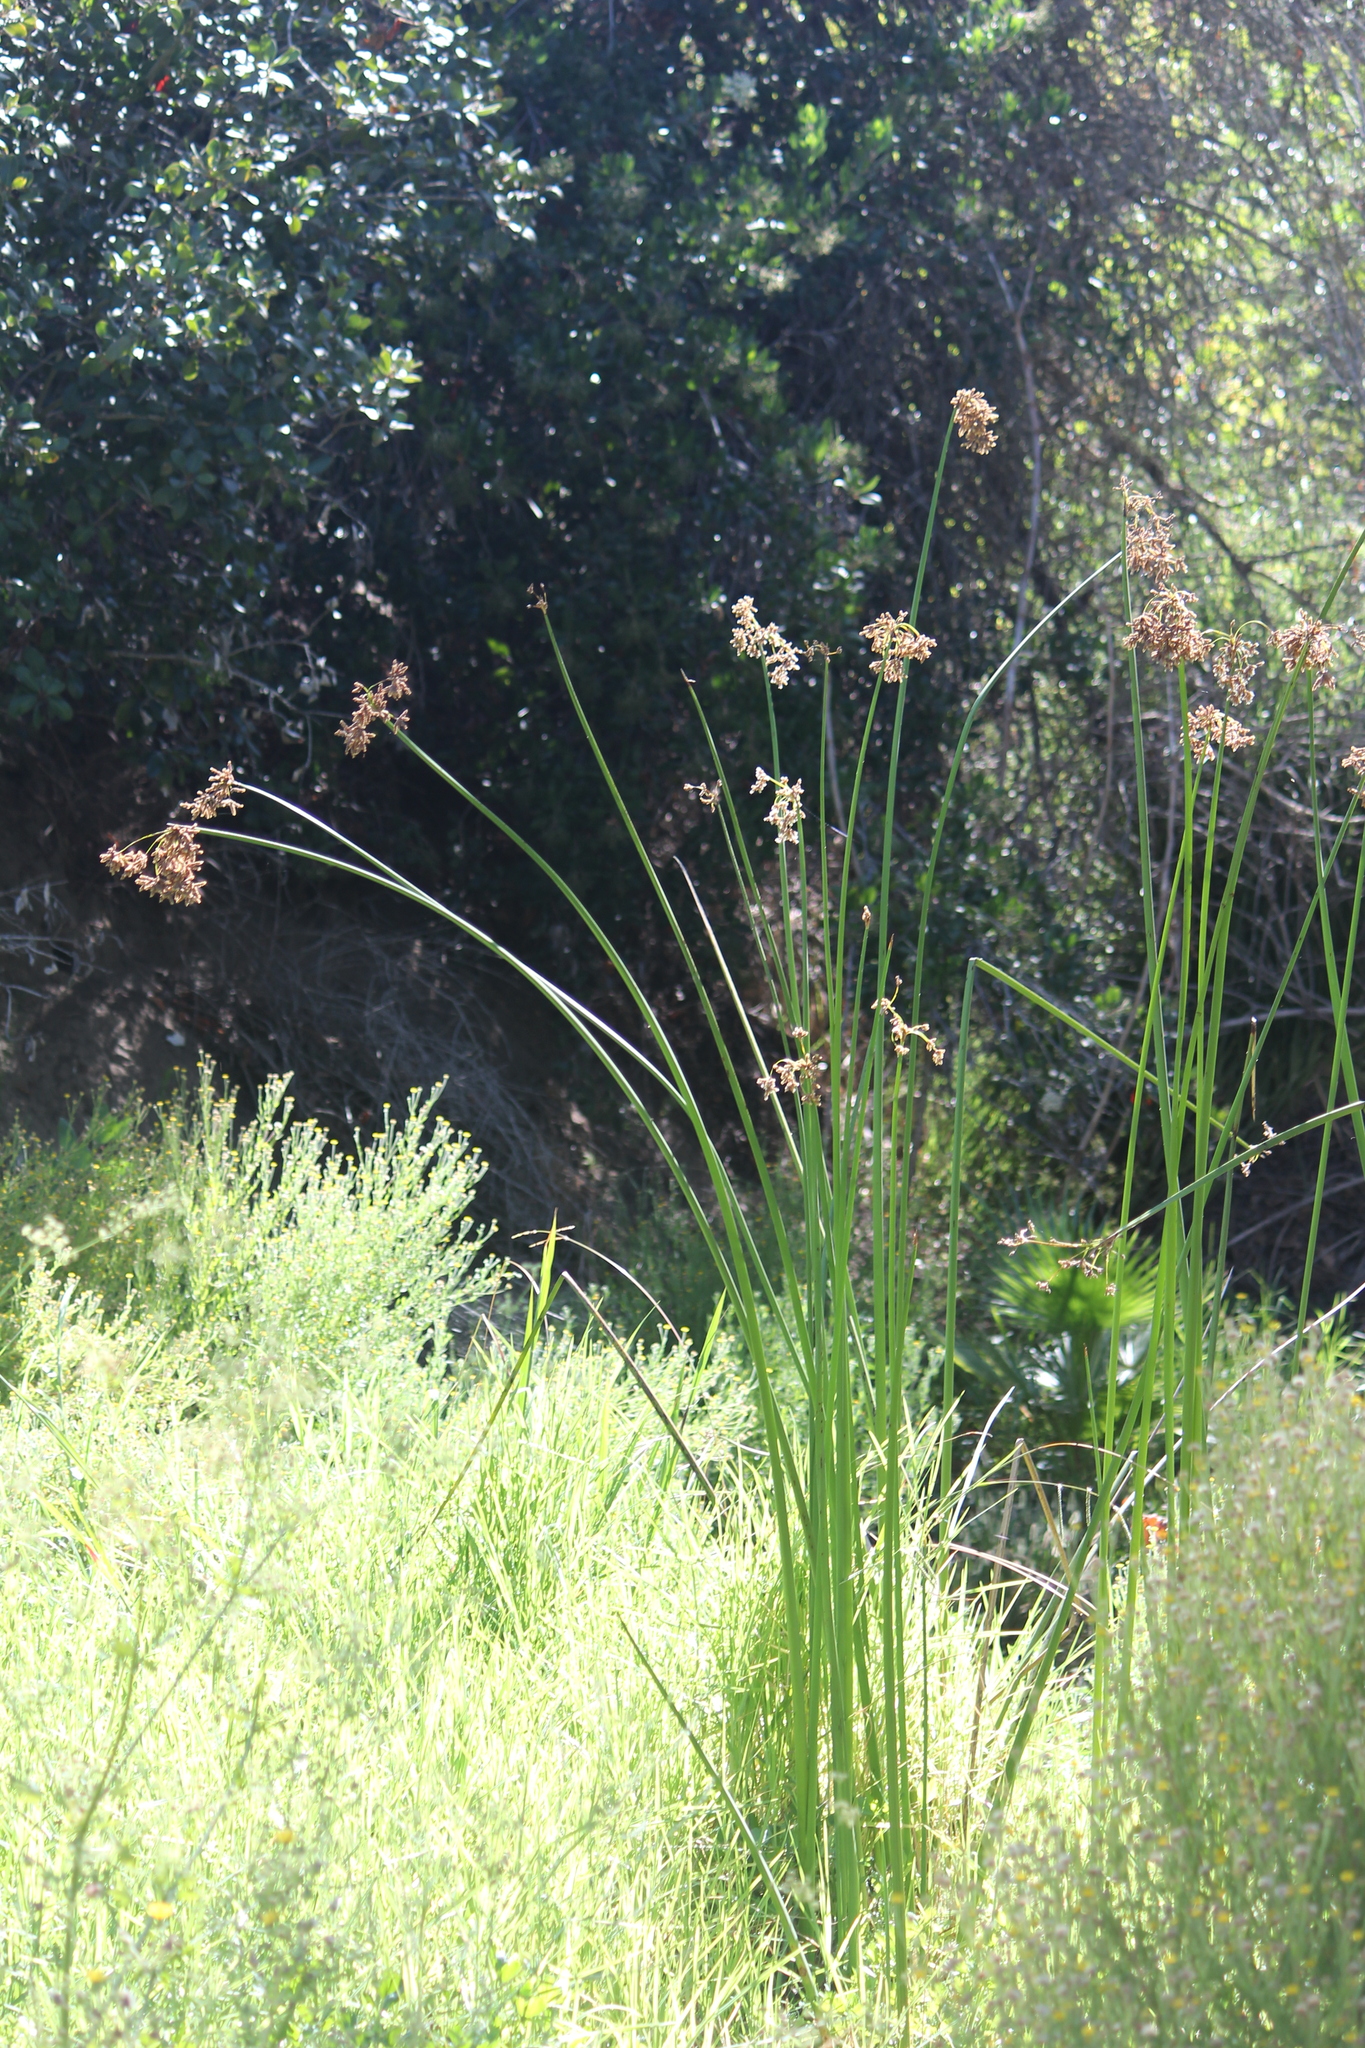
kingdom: Plantae
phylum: Tracheophyta
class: Liliopsida
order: Poales
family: Cyperaceae
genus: Schoenoplectus
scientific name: Schoenoplectus californicus
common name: California bulrush
